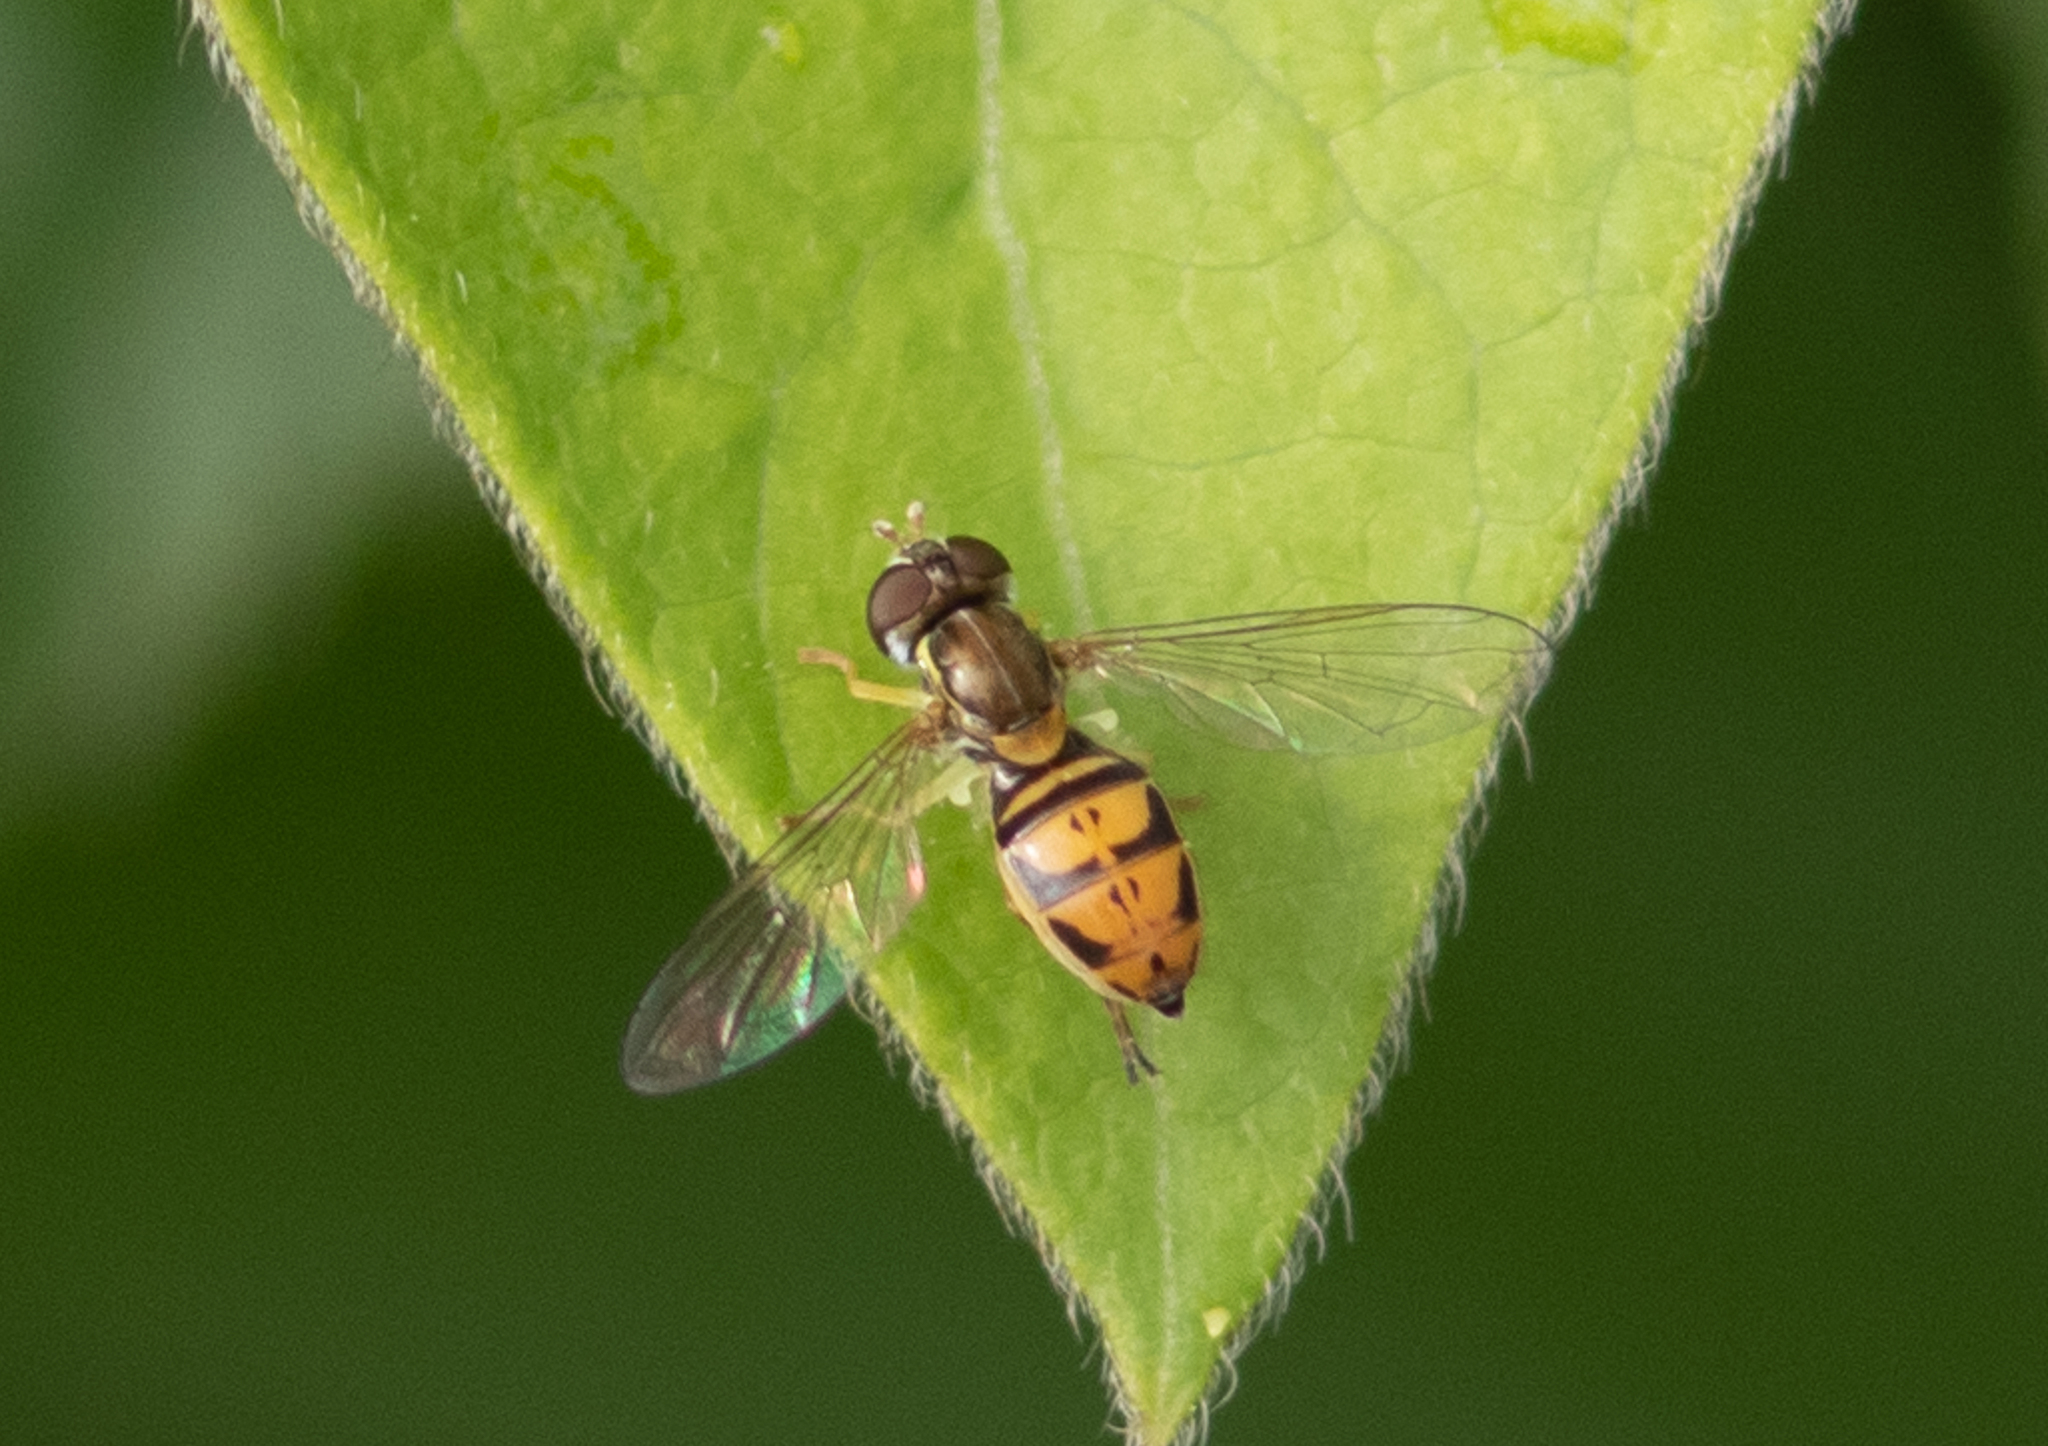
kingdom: Animalia
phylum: Arthropoda
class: Insecta
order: Diptera
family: Syrphidae
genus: Toxomerus
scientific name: Toxomerus marginatus
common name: Syrphid fly
